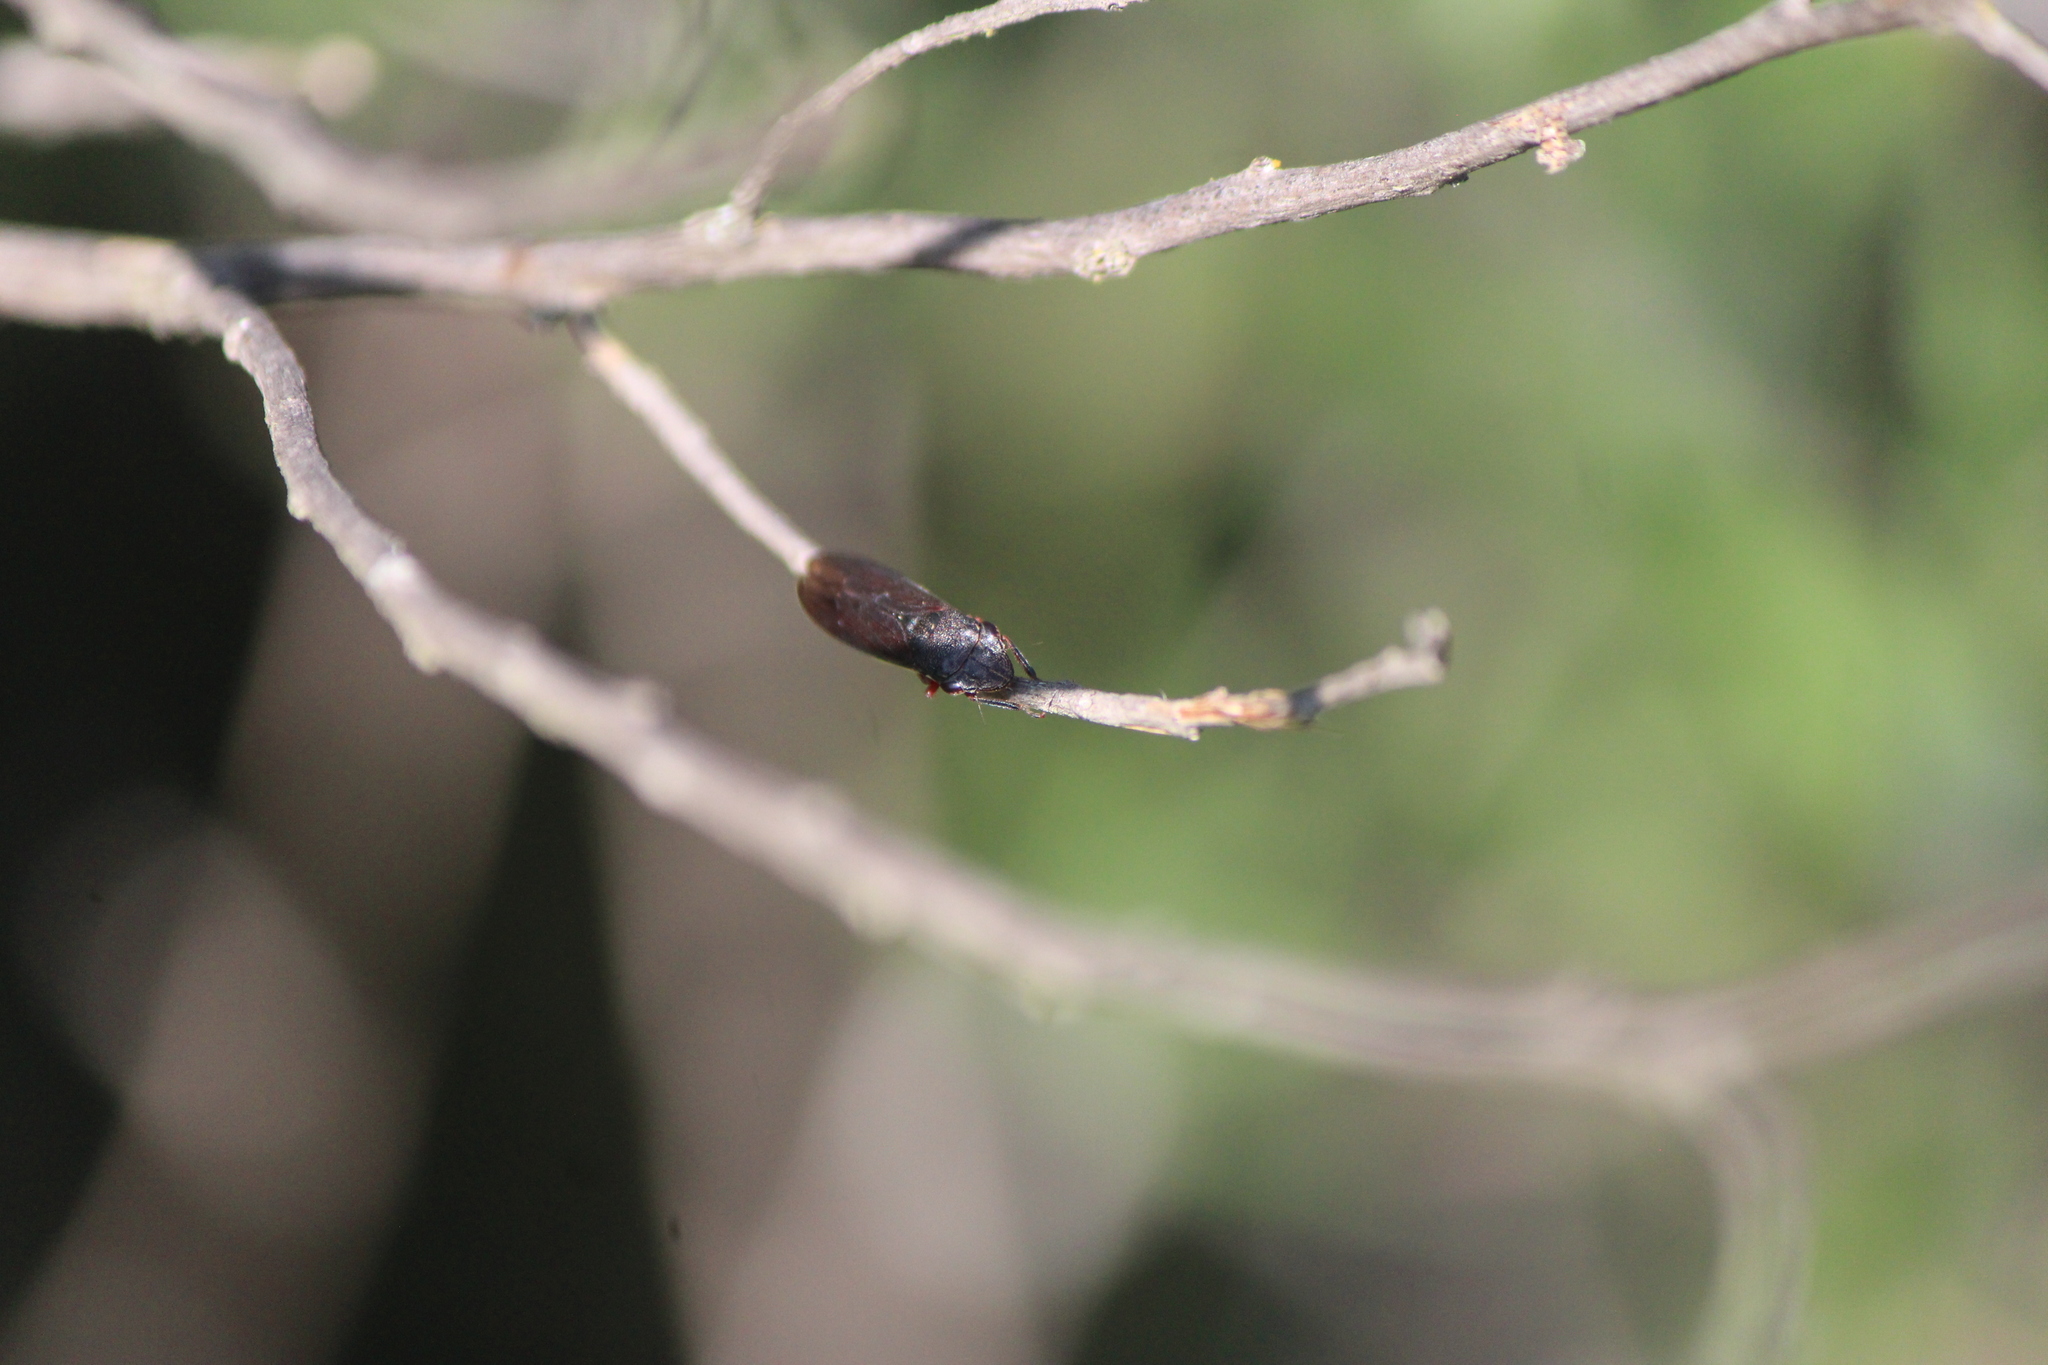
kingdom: Animalia
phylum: Arthropoda
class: Insecta
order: Hemiptera
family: Cicadellidae
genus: Homalodisca
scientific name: Homalodisca insolita
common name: Johnson grass sharpshooter
